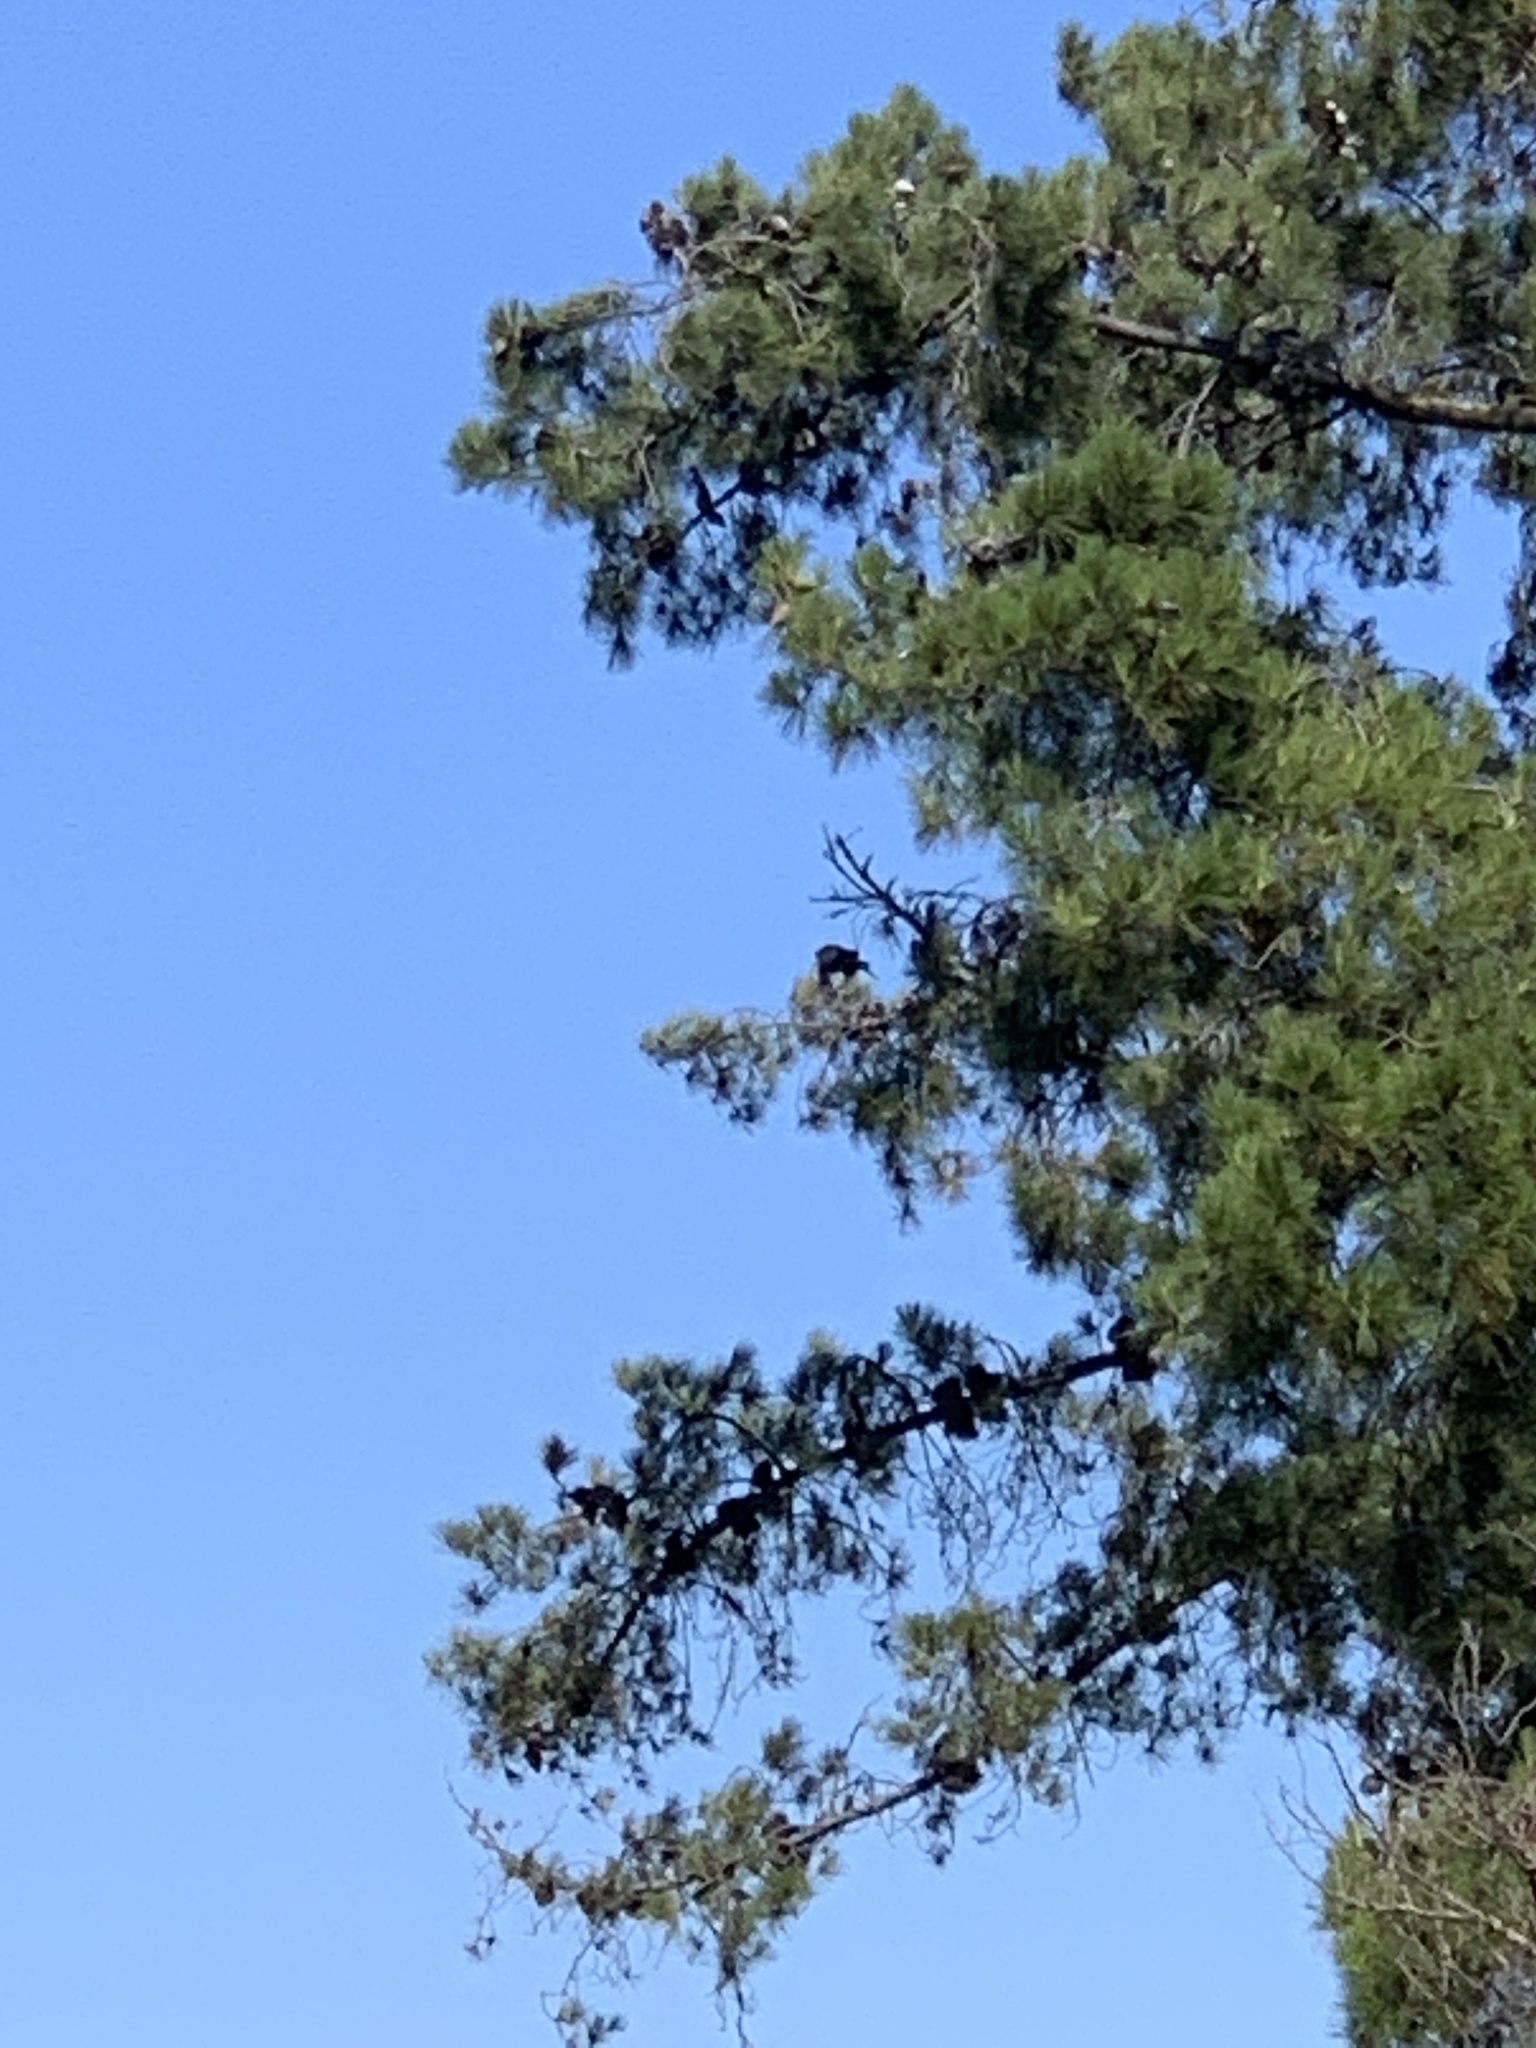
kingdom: Animalia
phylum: Chordata
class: Aves
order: Passeriformes
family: Corvidae
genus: Corvus
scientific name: Corvus brachyrhynchos
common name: American crow
